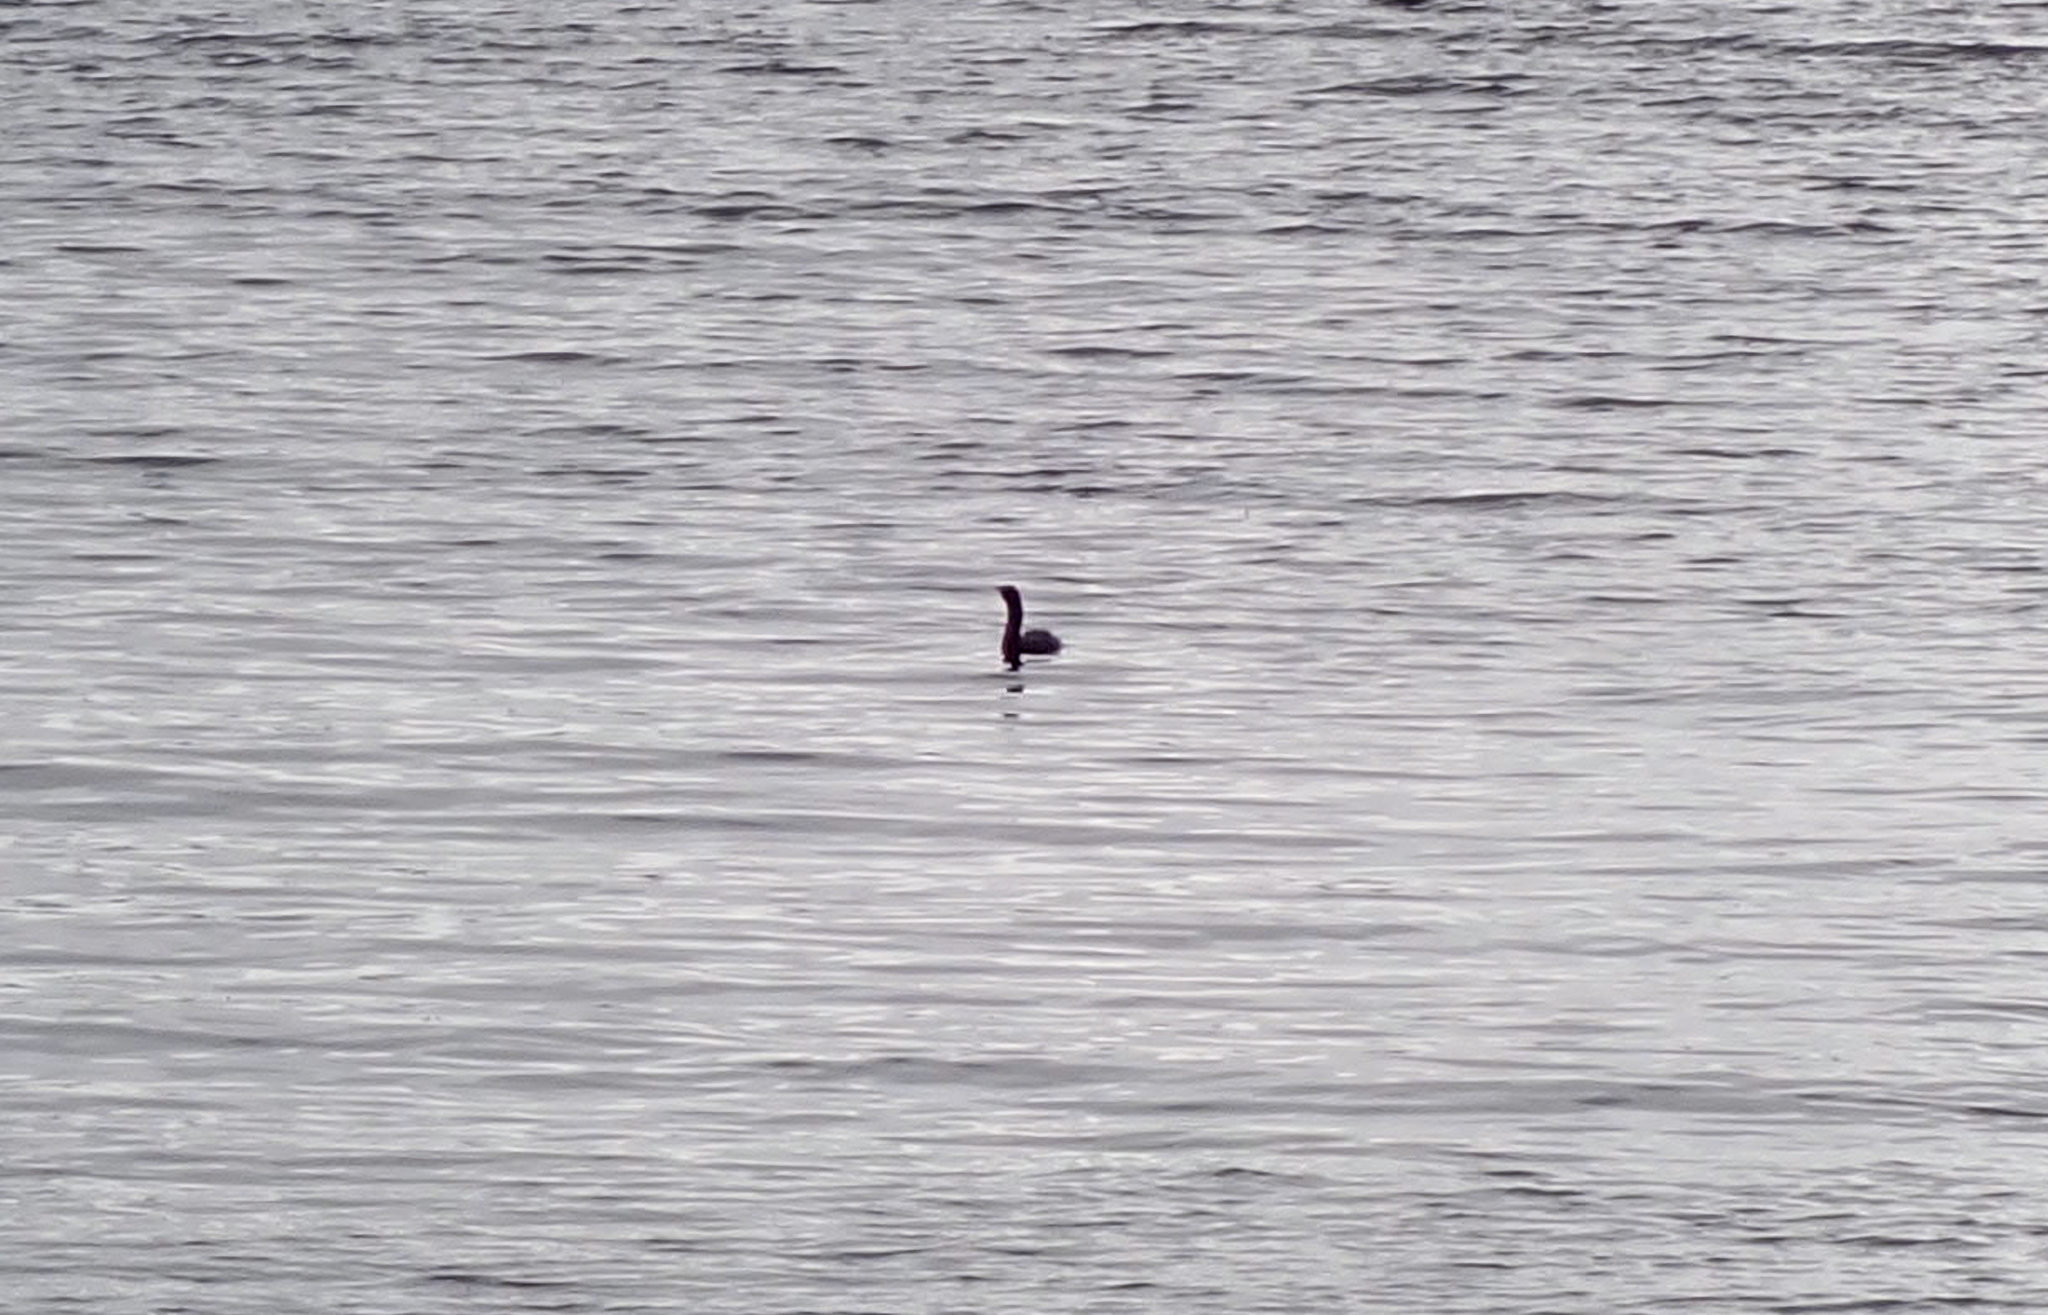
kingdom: Animalia
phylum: Chordata
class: Aves
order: Suliformes
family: Phalacrocoracidae
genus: Phalacrocorax
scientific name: Phalacrocorax pelagicus
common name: Pelagic cormorant
